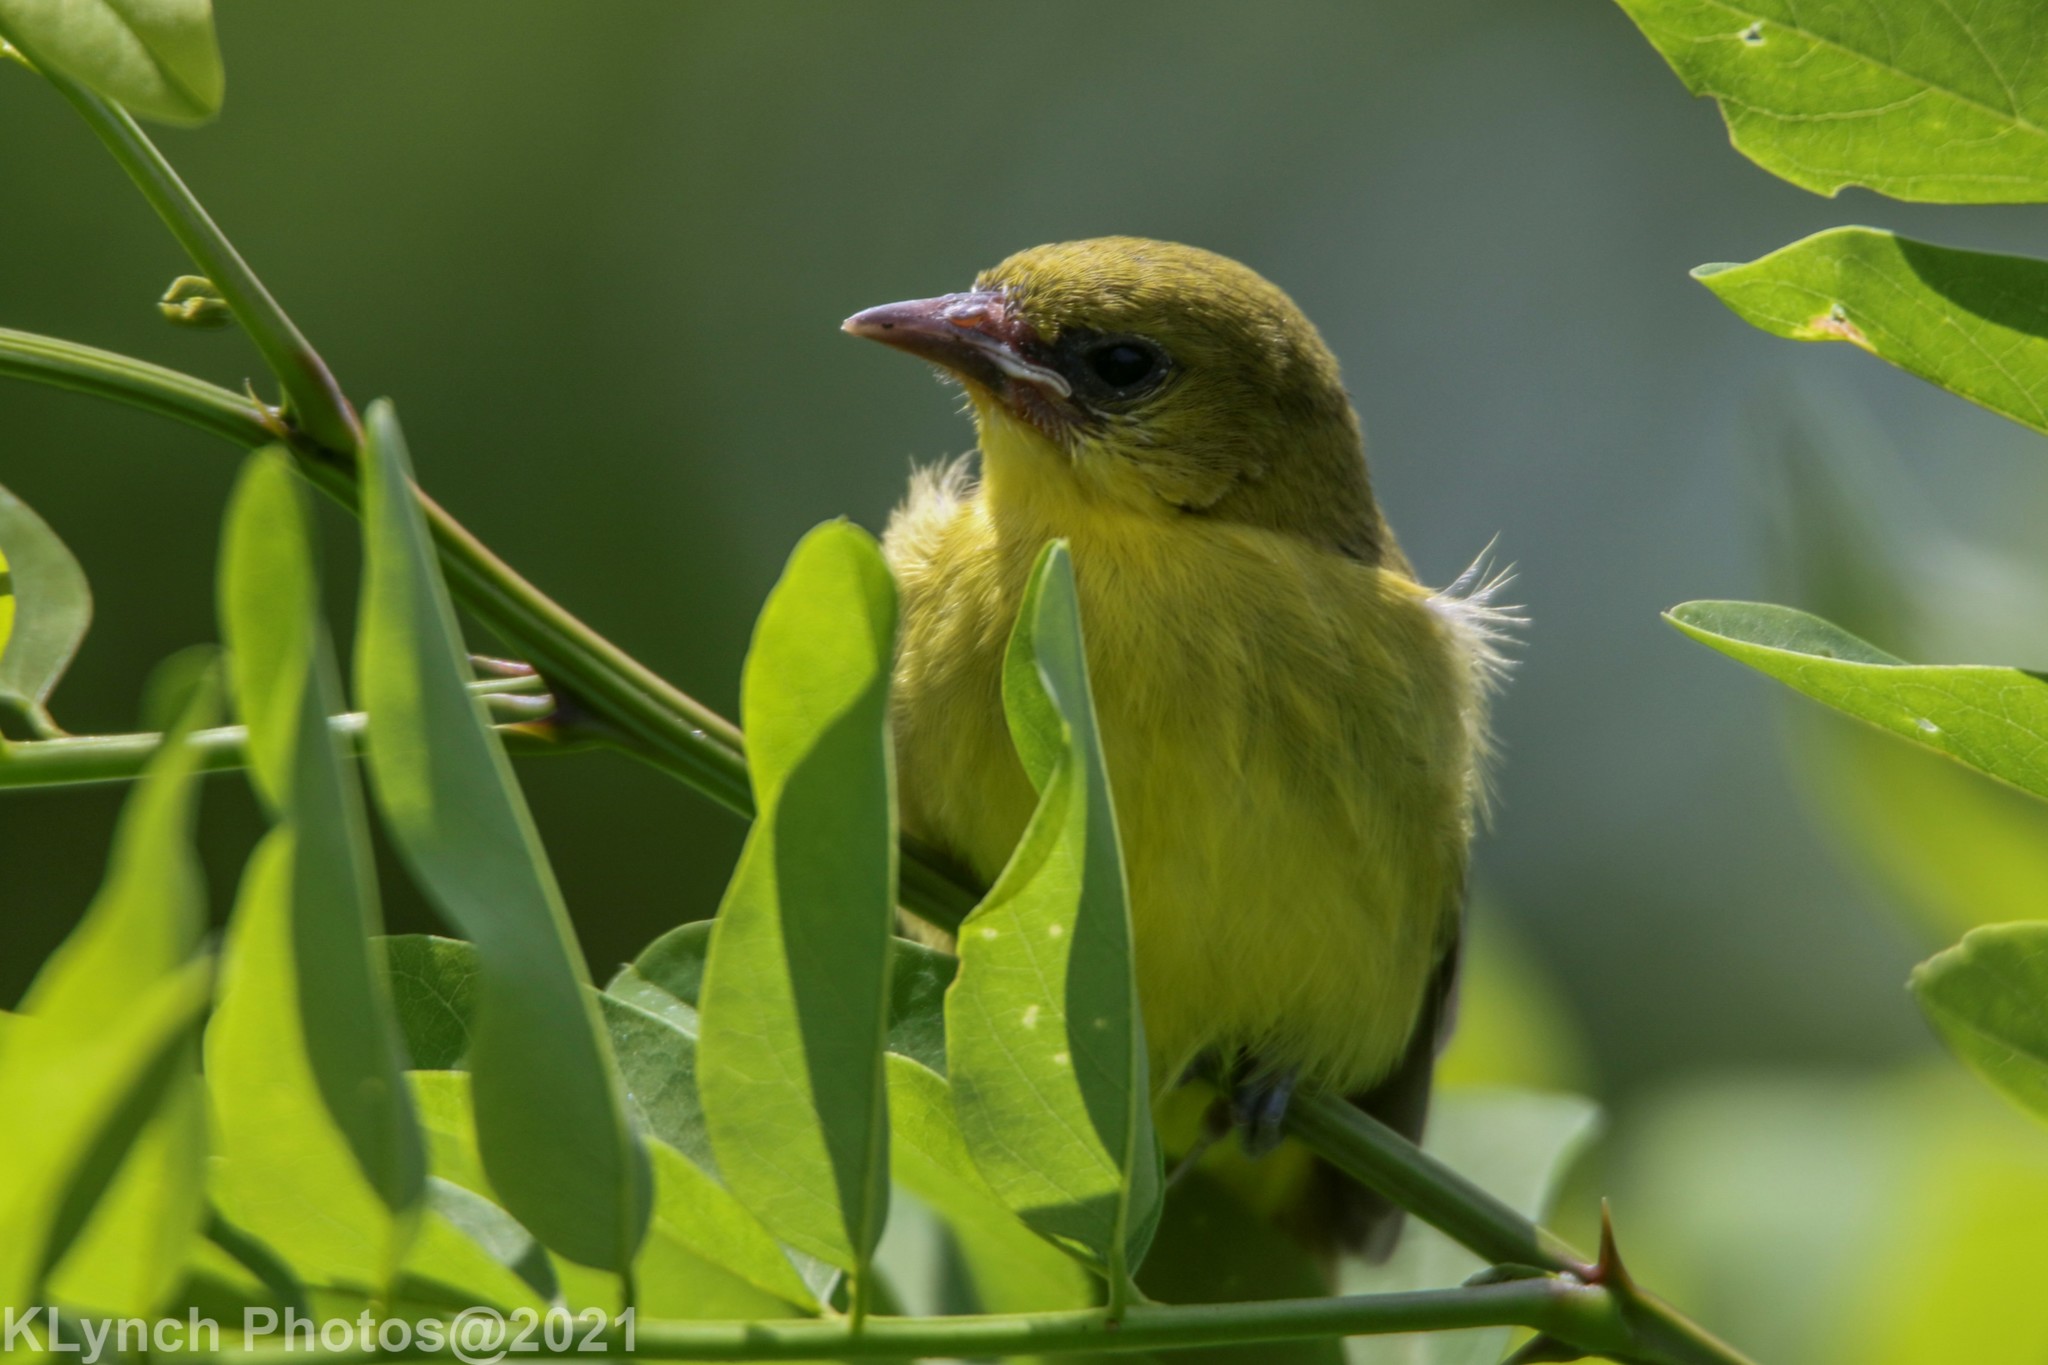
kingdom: Animalia
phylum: Chordata
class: Aves
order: Passeriformes
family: Icteridae
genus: Icterus
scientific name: Icterus spurius
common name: Orchard oriole
